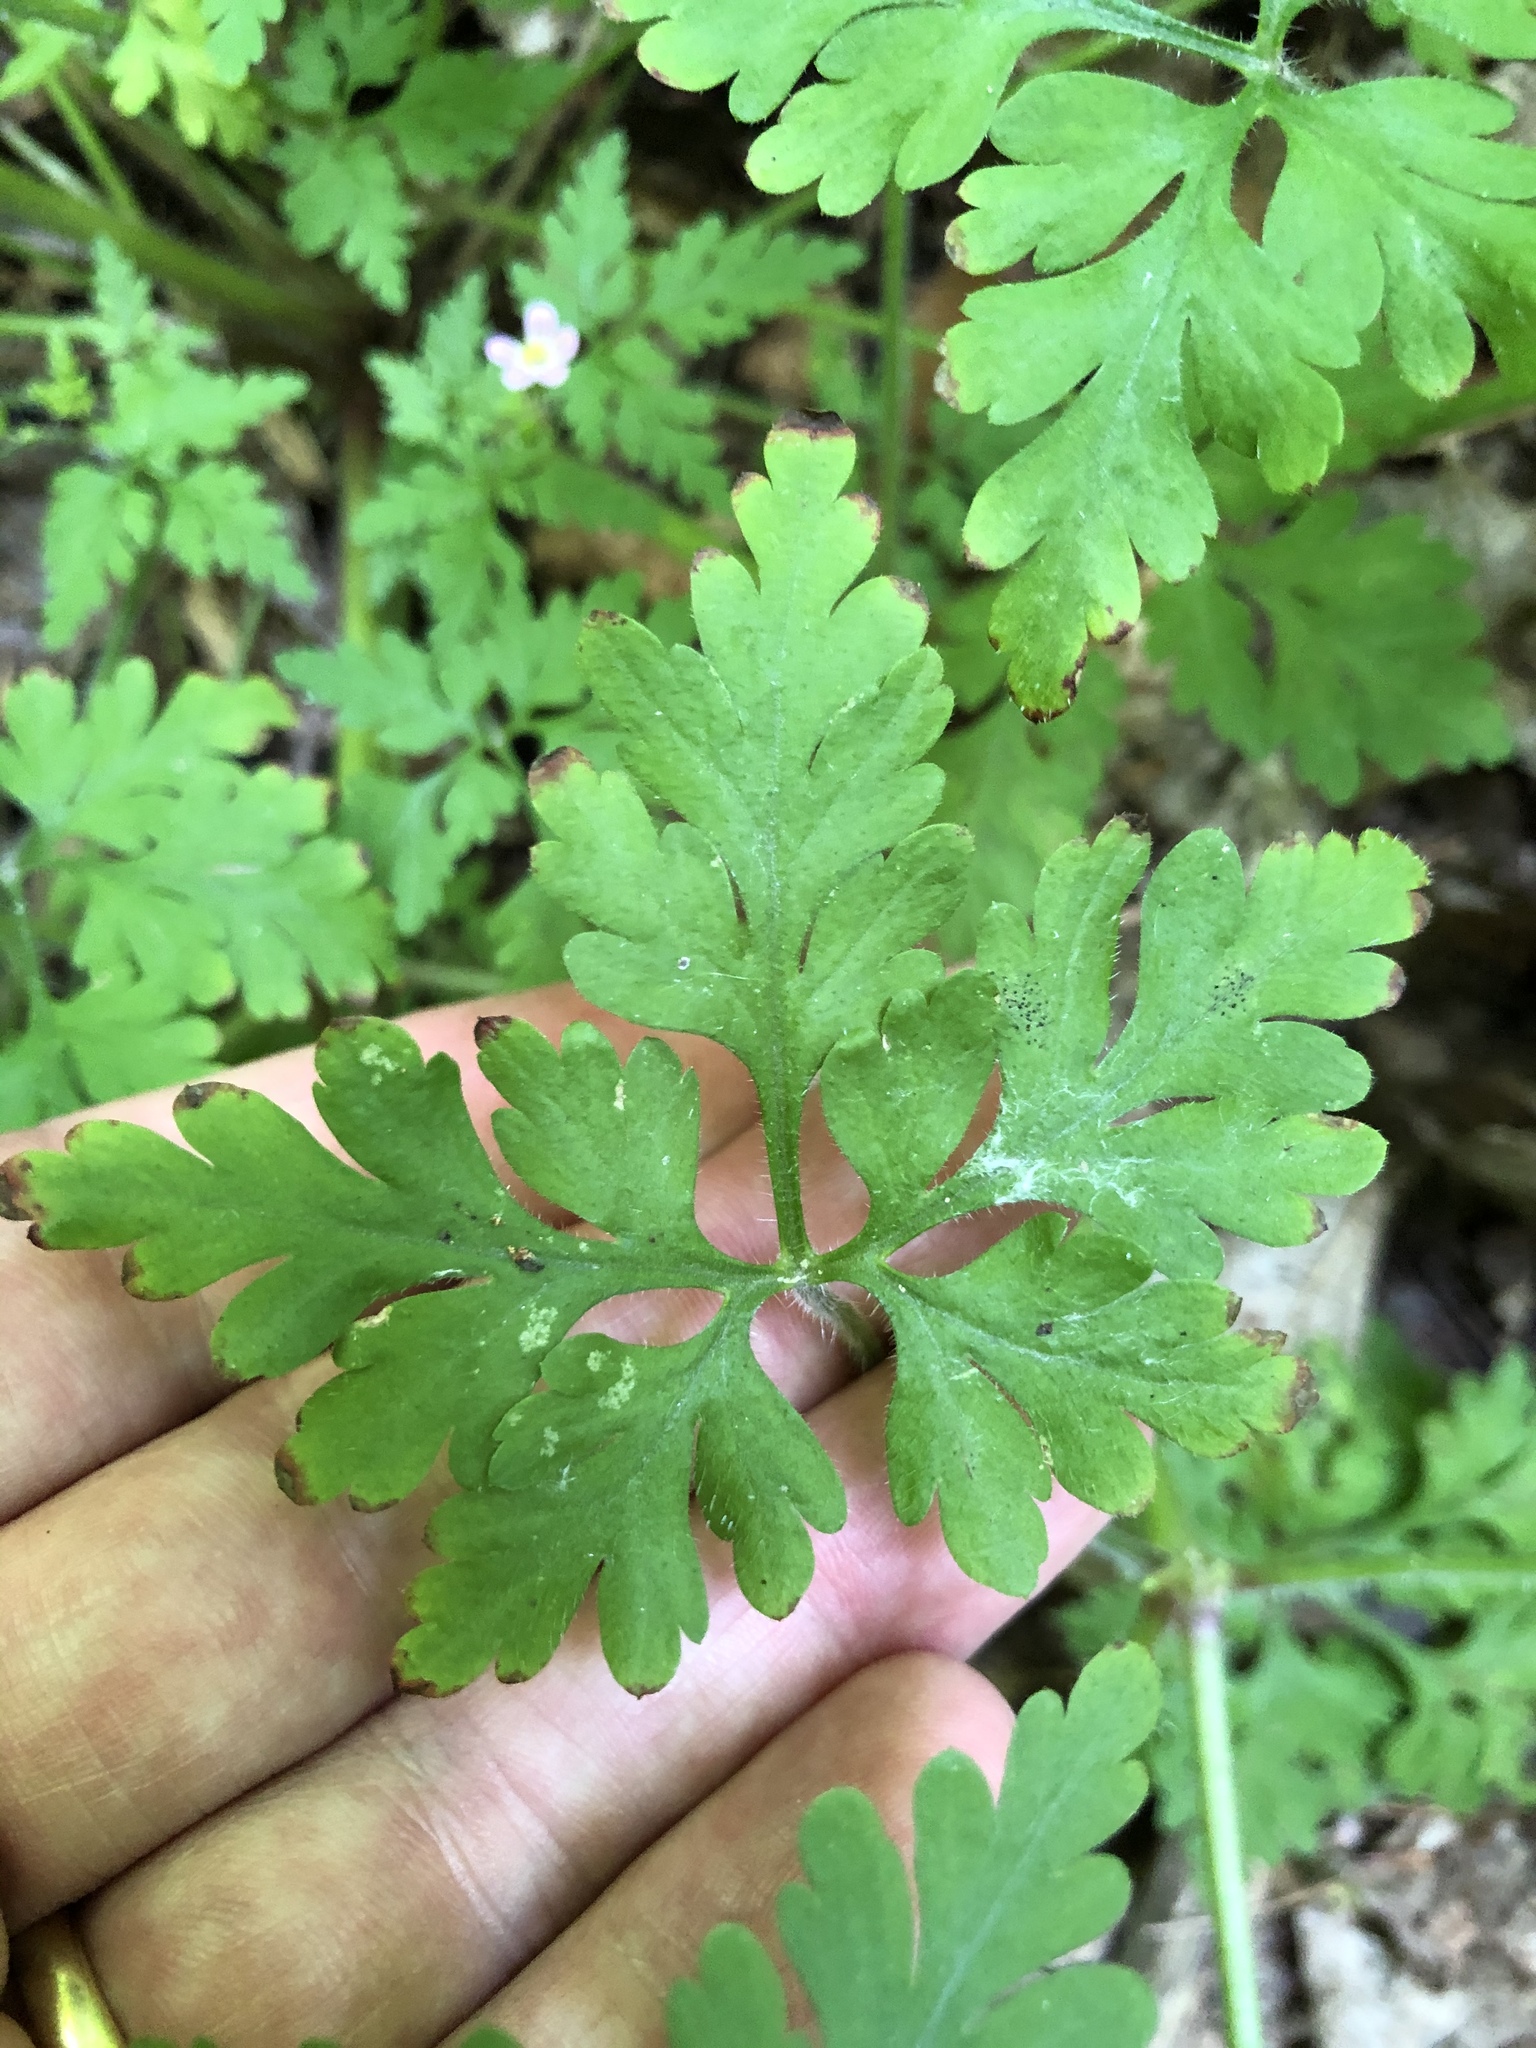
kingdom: Plantae
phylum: Tracheophyta
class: Magnoliopsida
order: Geraniales
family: Geraniaceae
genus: Geranium
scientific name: Geranium robertianum
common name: Herb-robert
